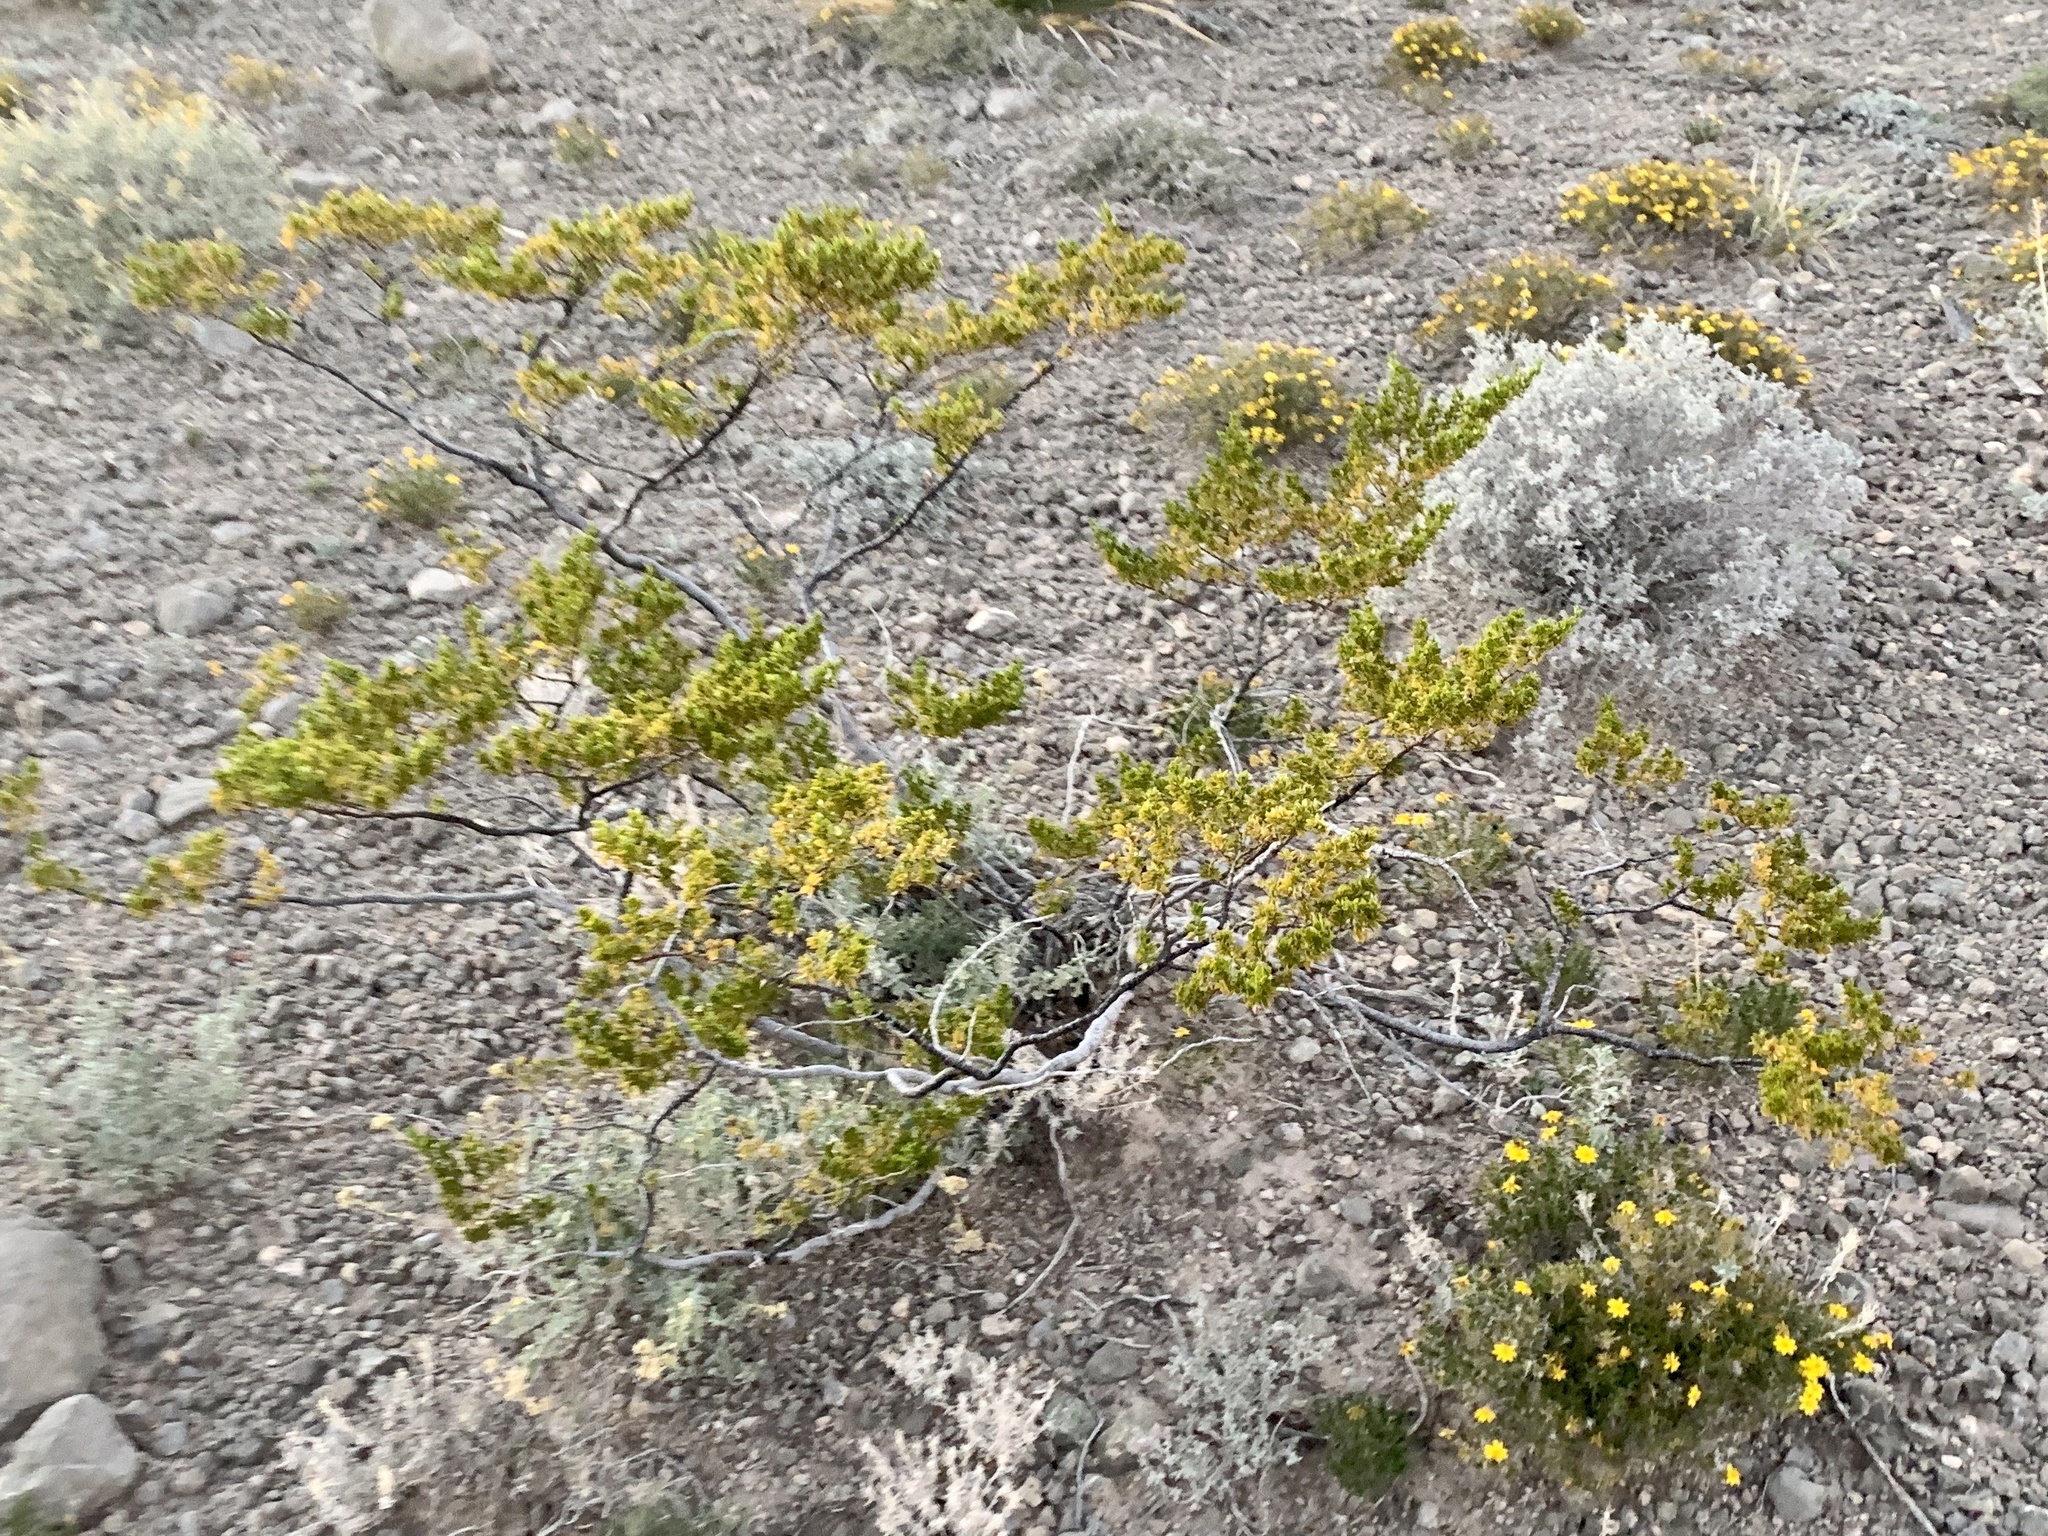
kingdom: Plantae
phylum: Tracheophyta
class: Magnoliopsida
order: Zygophyllales
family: Zygophyllaceae
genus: Larrea
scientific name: Larrea tridentata
